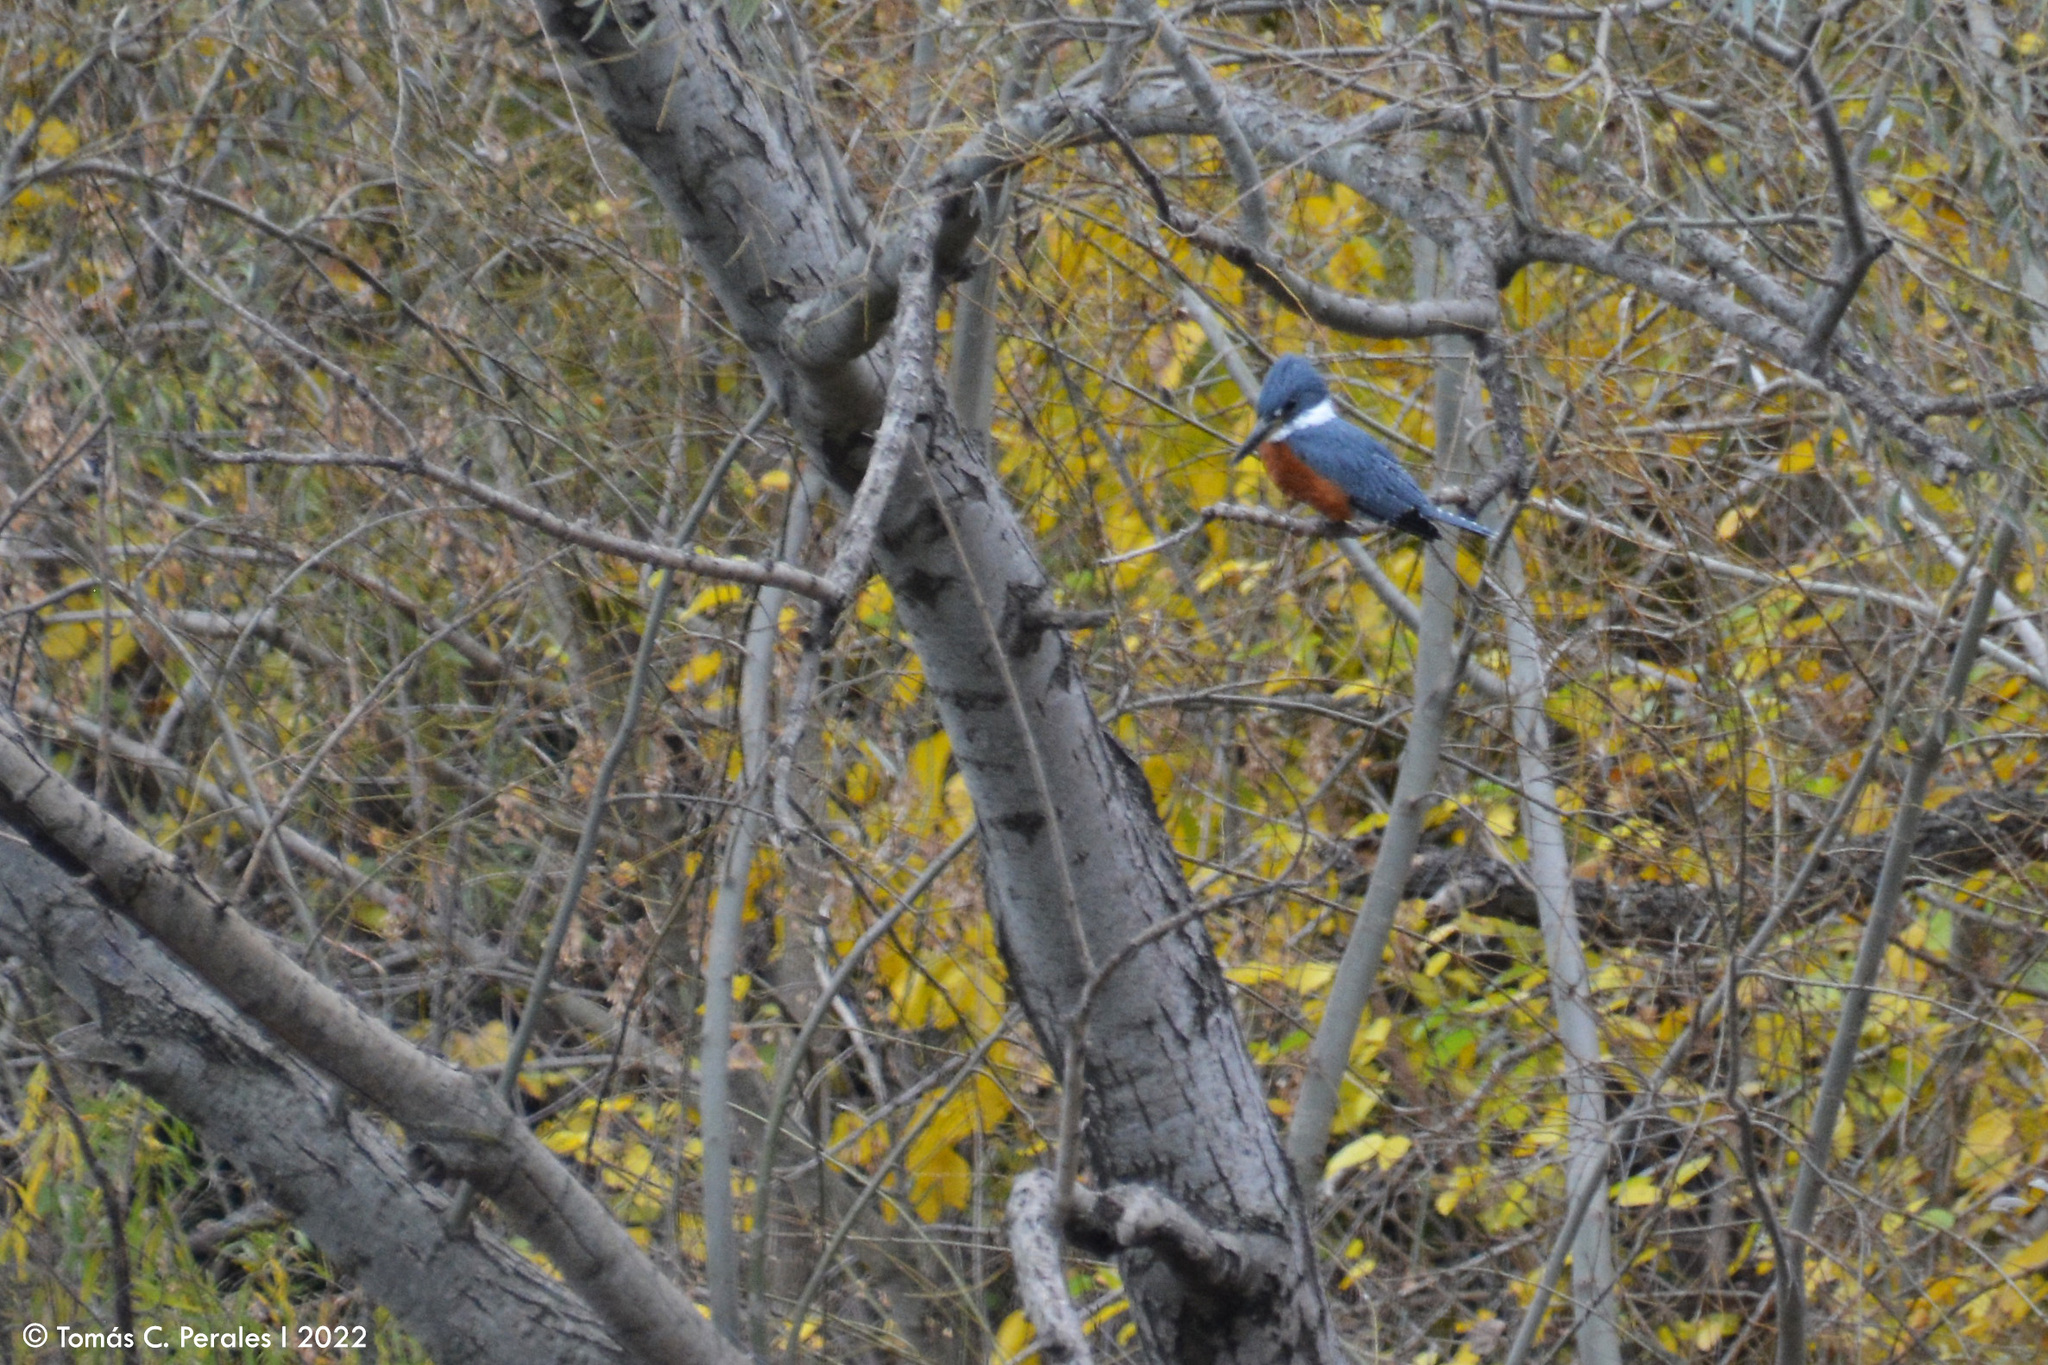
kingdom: Animalia
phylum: Chordata
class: Aves
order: Coraciiformes
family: Alcedinidae
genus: Megaceryle
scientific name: Megaceryle torquata
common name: Ringed kingfisher
